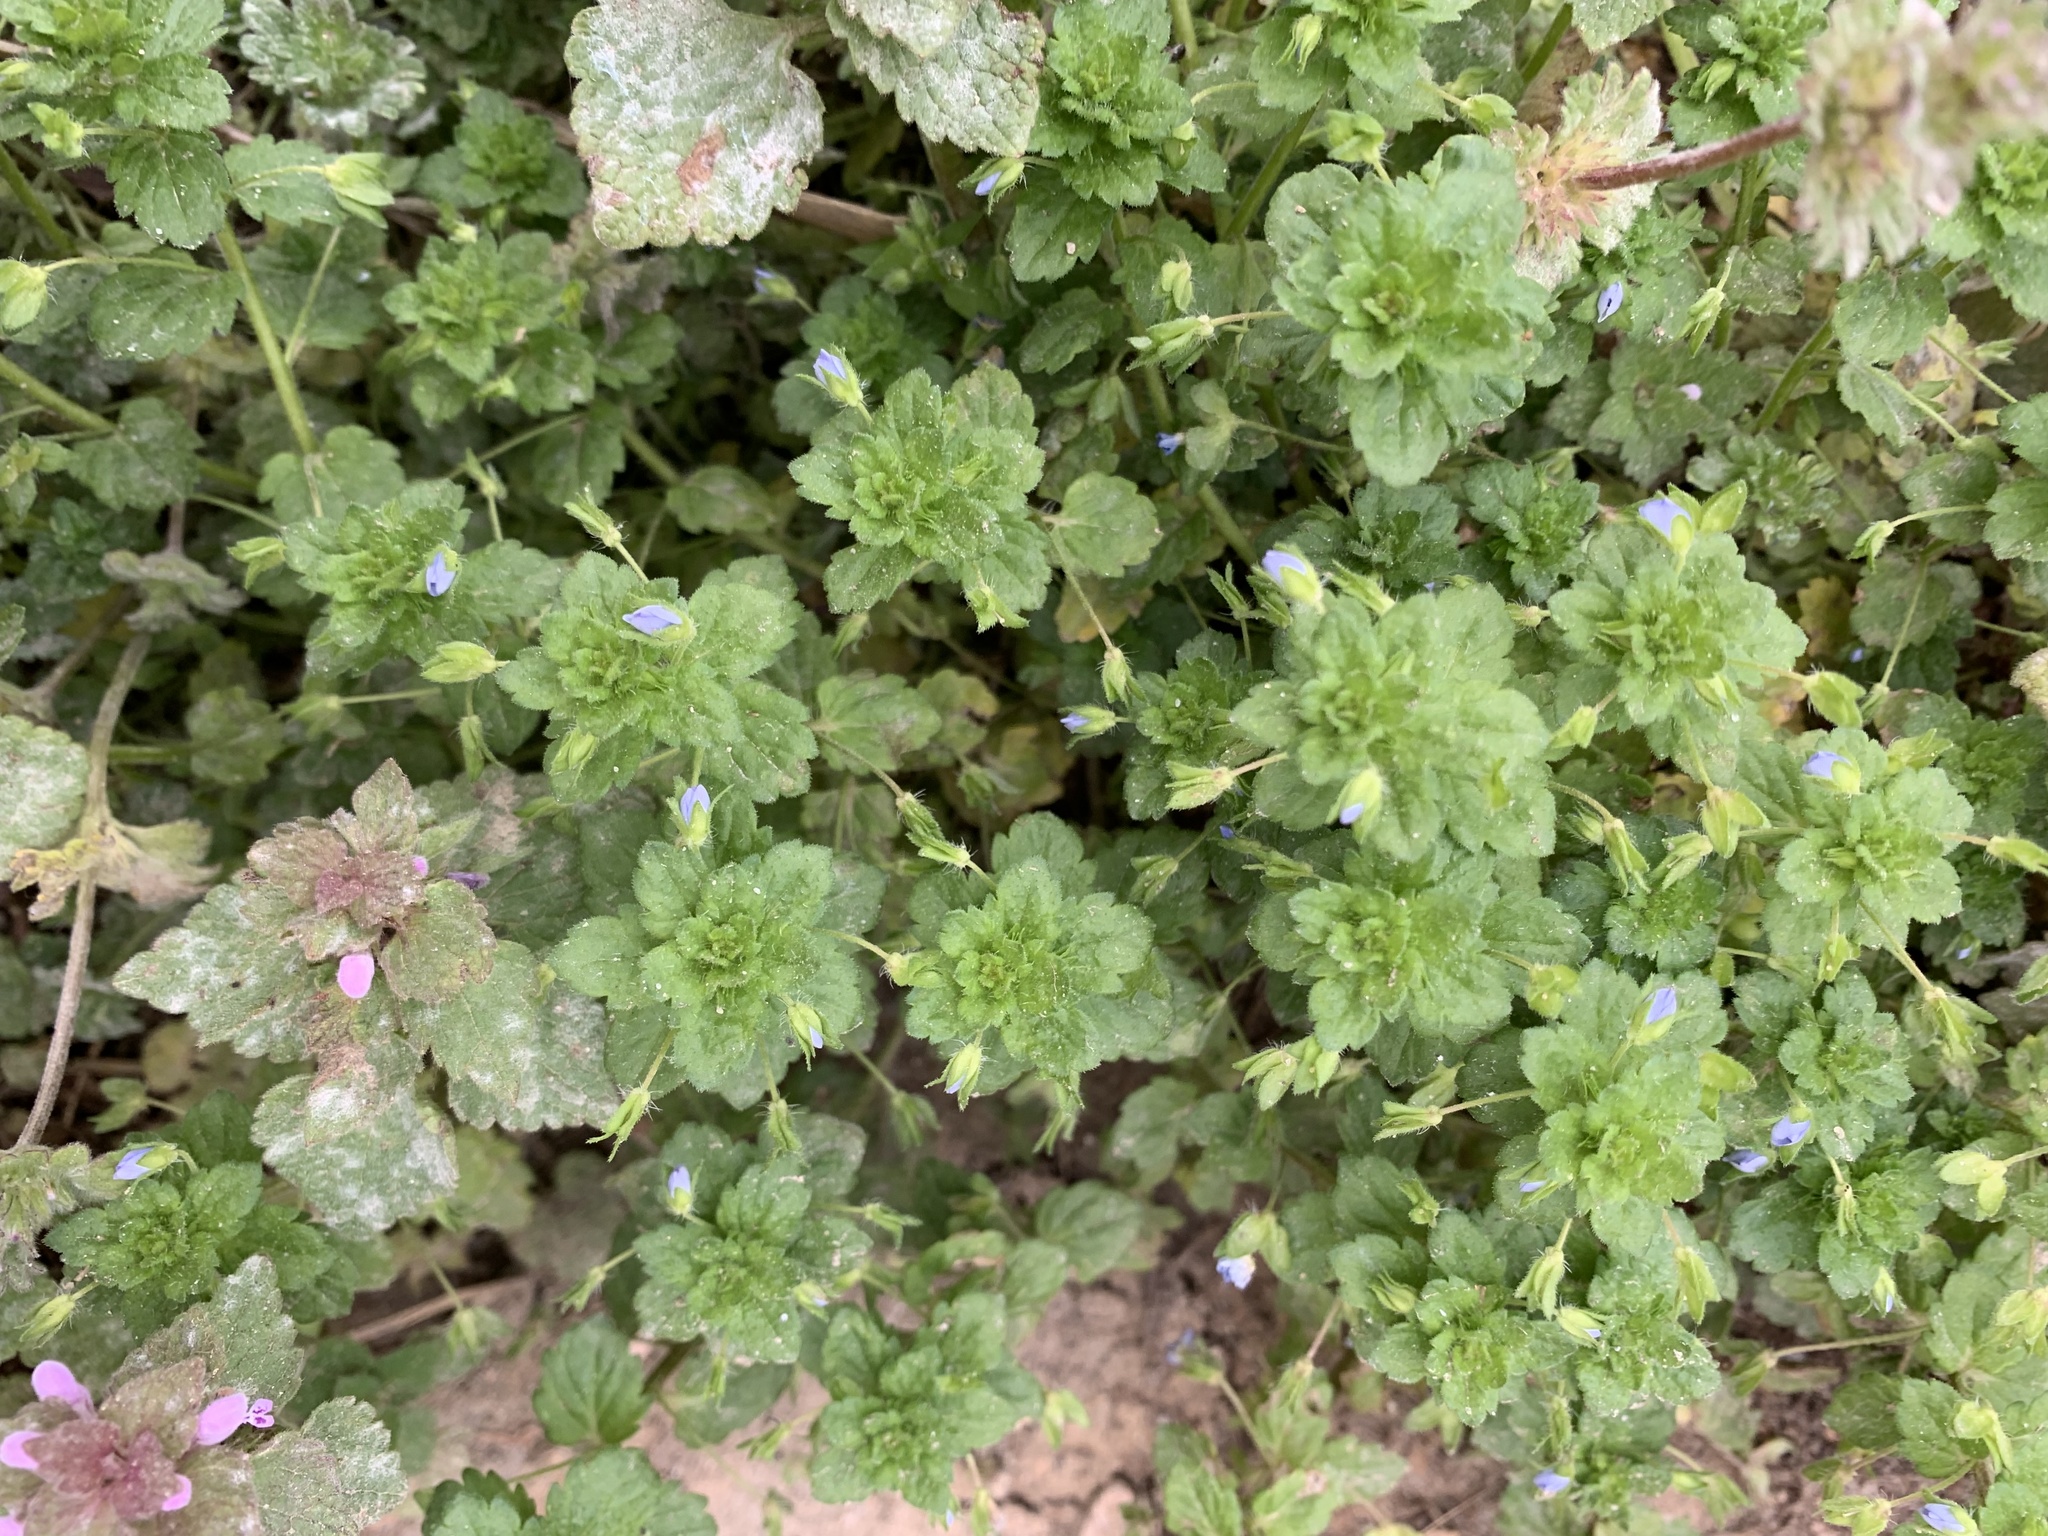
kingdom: Plantae
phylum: Tracheophyta
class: Magnoliopsida
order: Lamiales
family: Plantaginaceae
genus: Veronica
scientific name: Veronica persica
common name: Common field-speedwell
